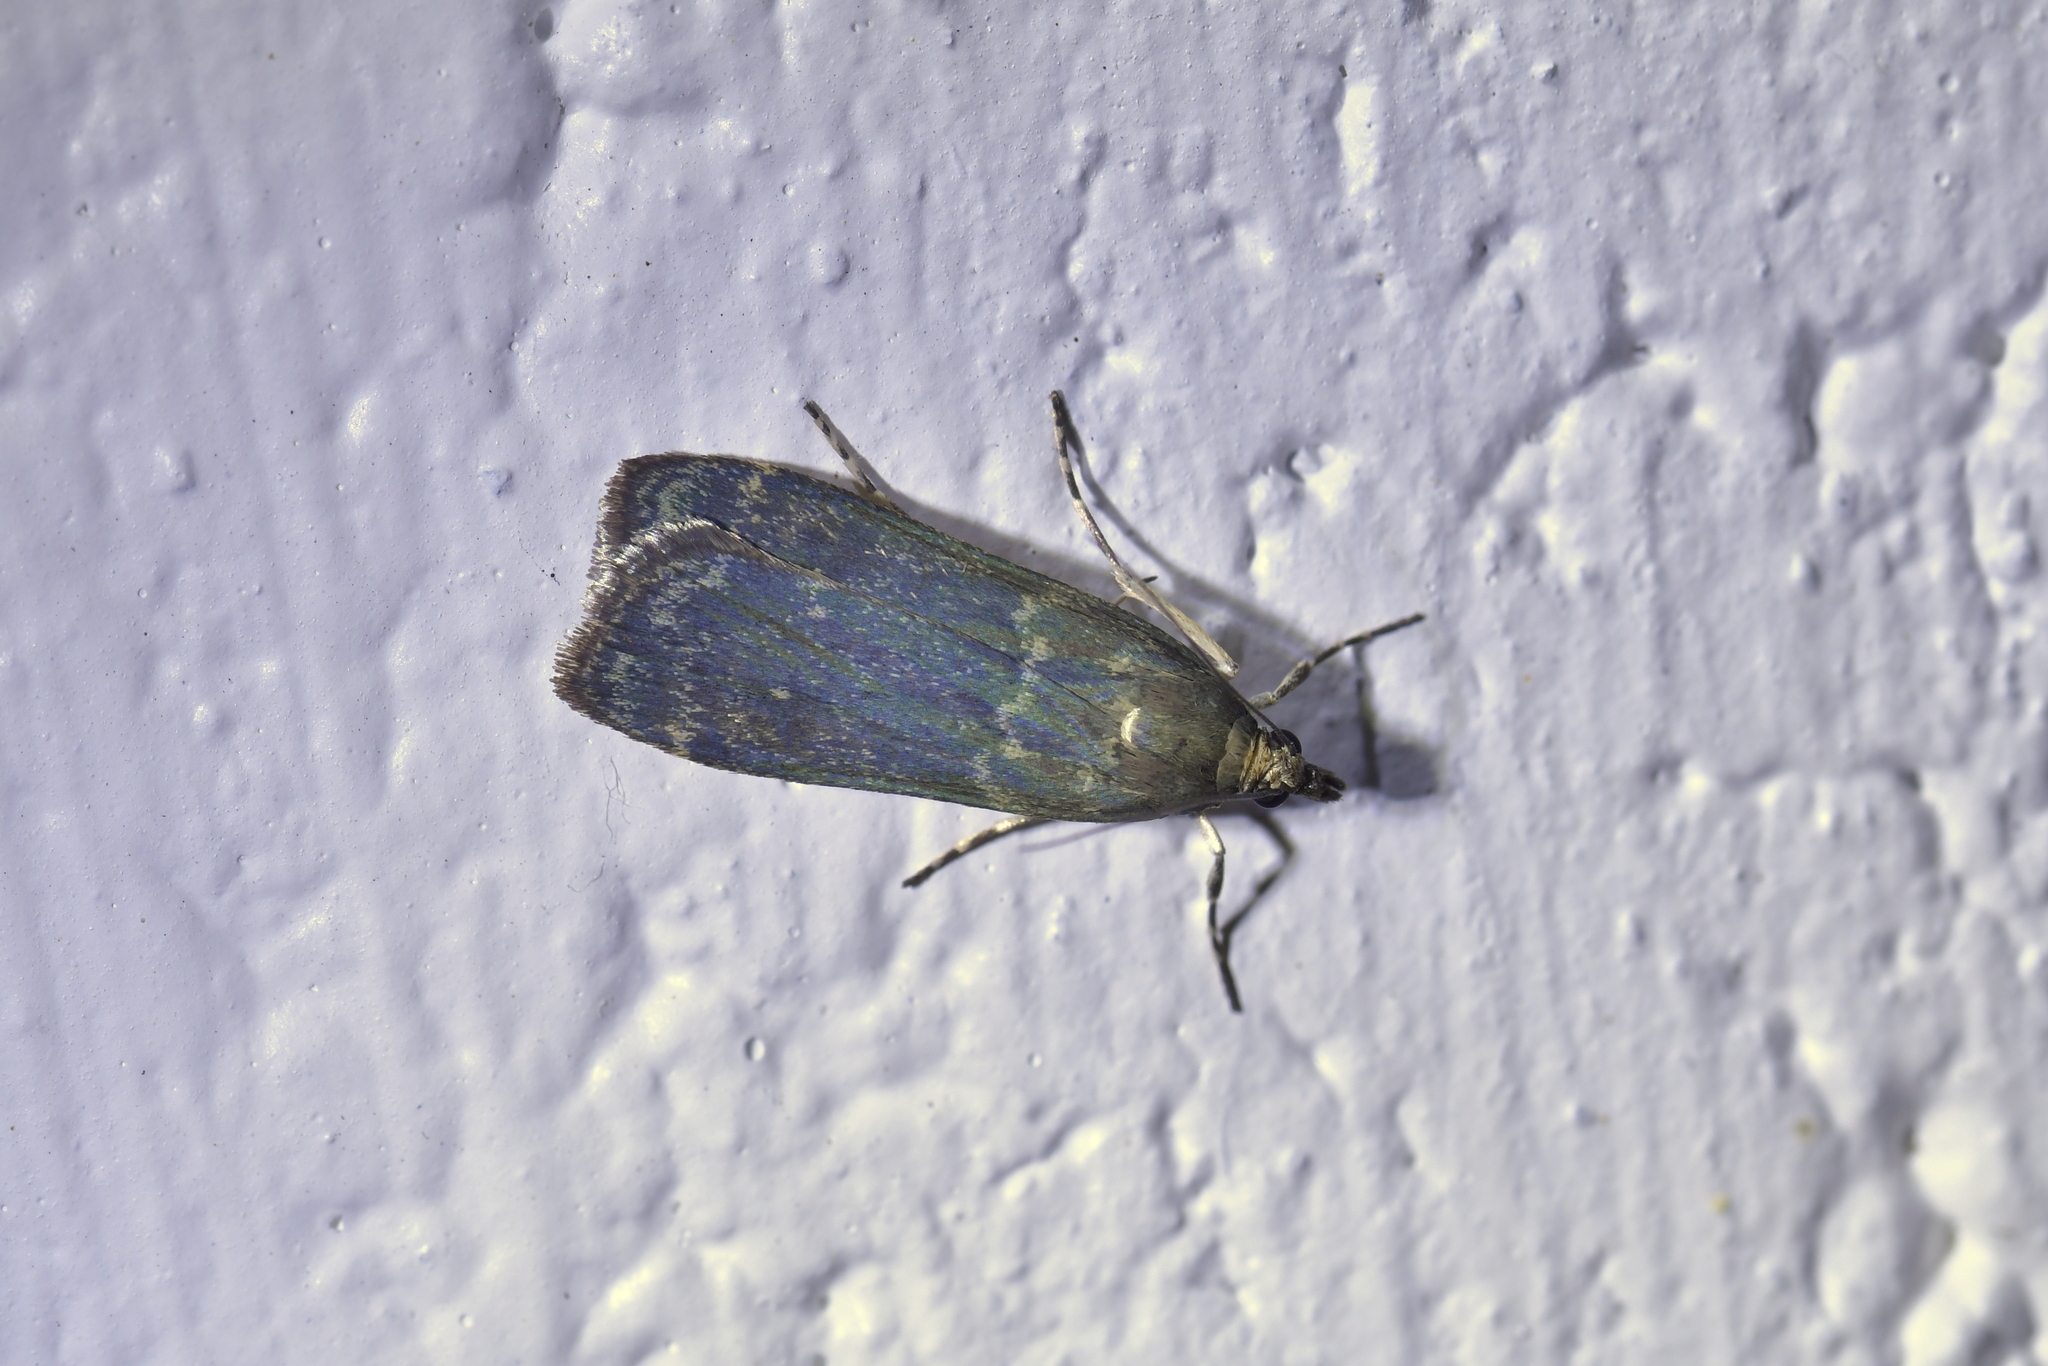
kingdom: Animalia
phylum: Arthropoda
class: Insecta
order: Lepidoptera
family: Crambidae
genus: Eudonia
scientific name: Eudonia cataxesta
